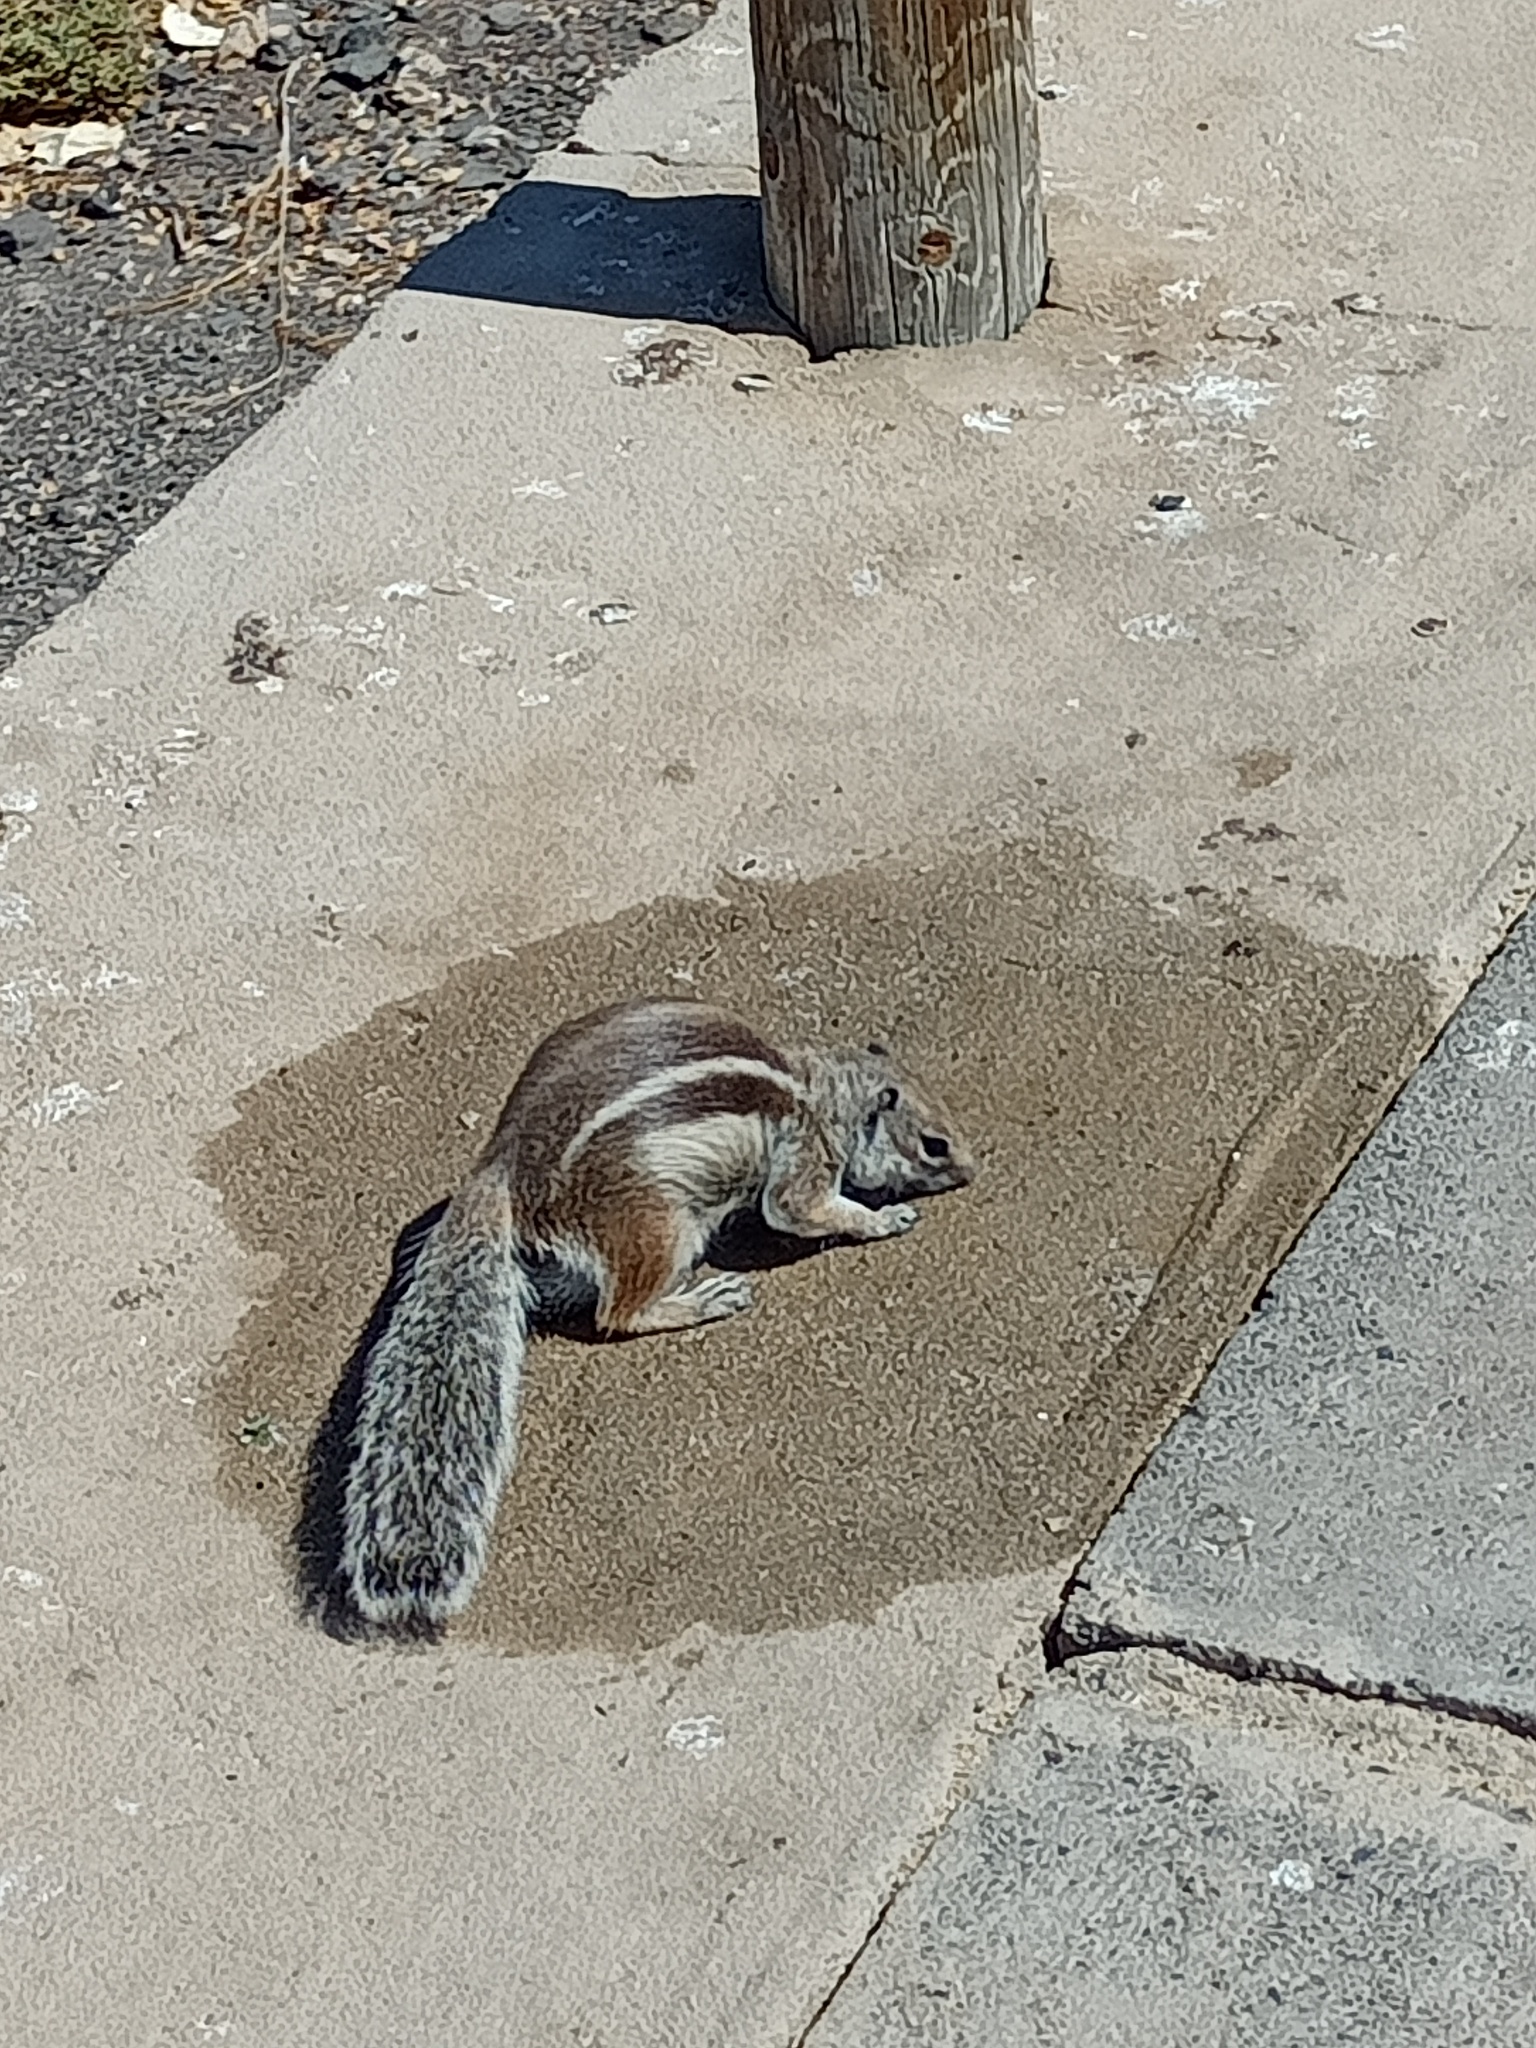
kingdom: Animalia
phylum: Chordata
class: Mammalia
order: Rodentia
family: Sciuridae
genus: Atlantoxerus
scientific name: Atlantoxerus getulus
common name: Barbary ground squirrel
